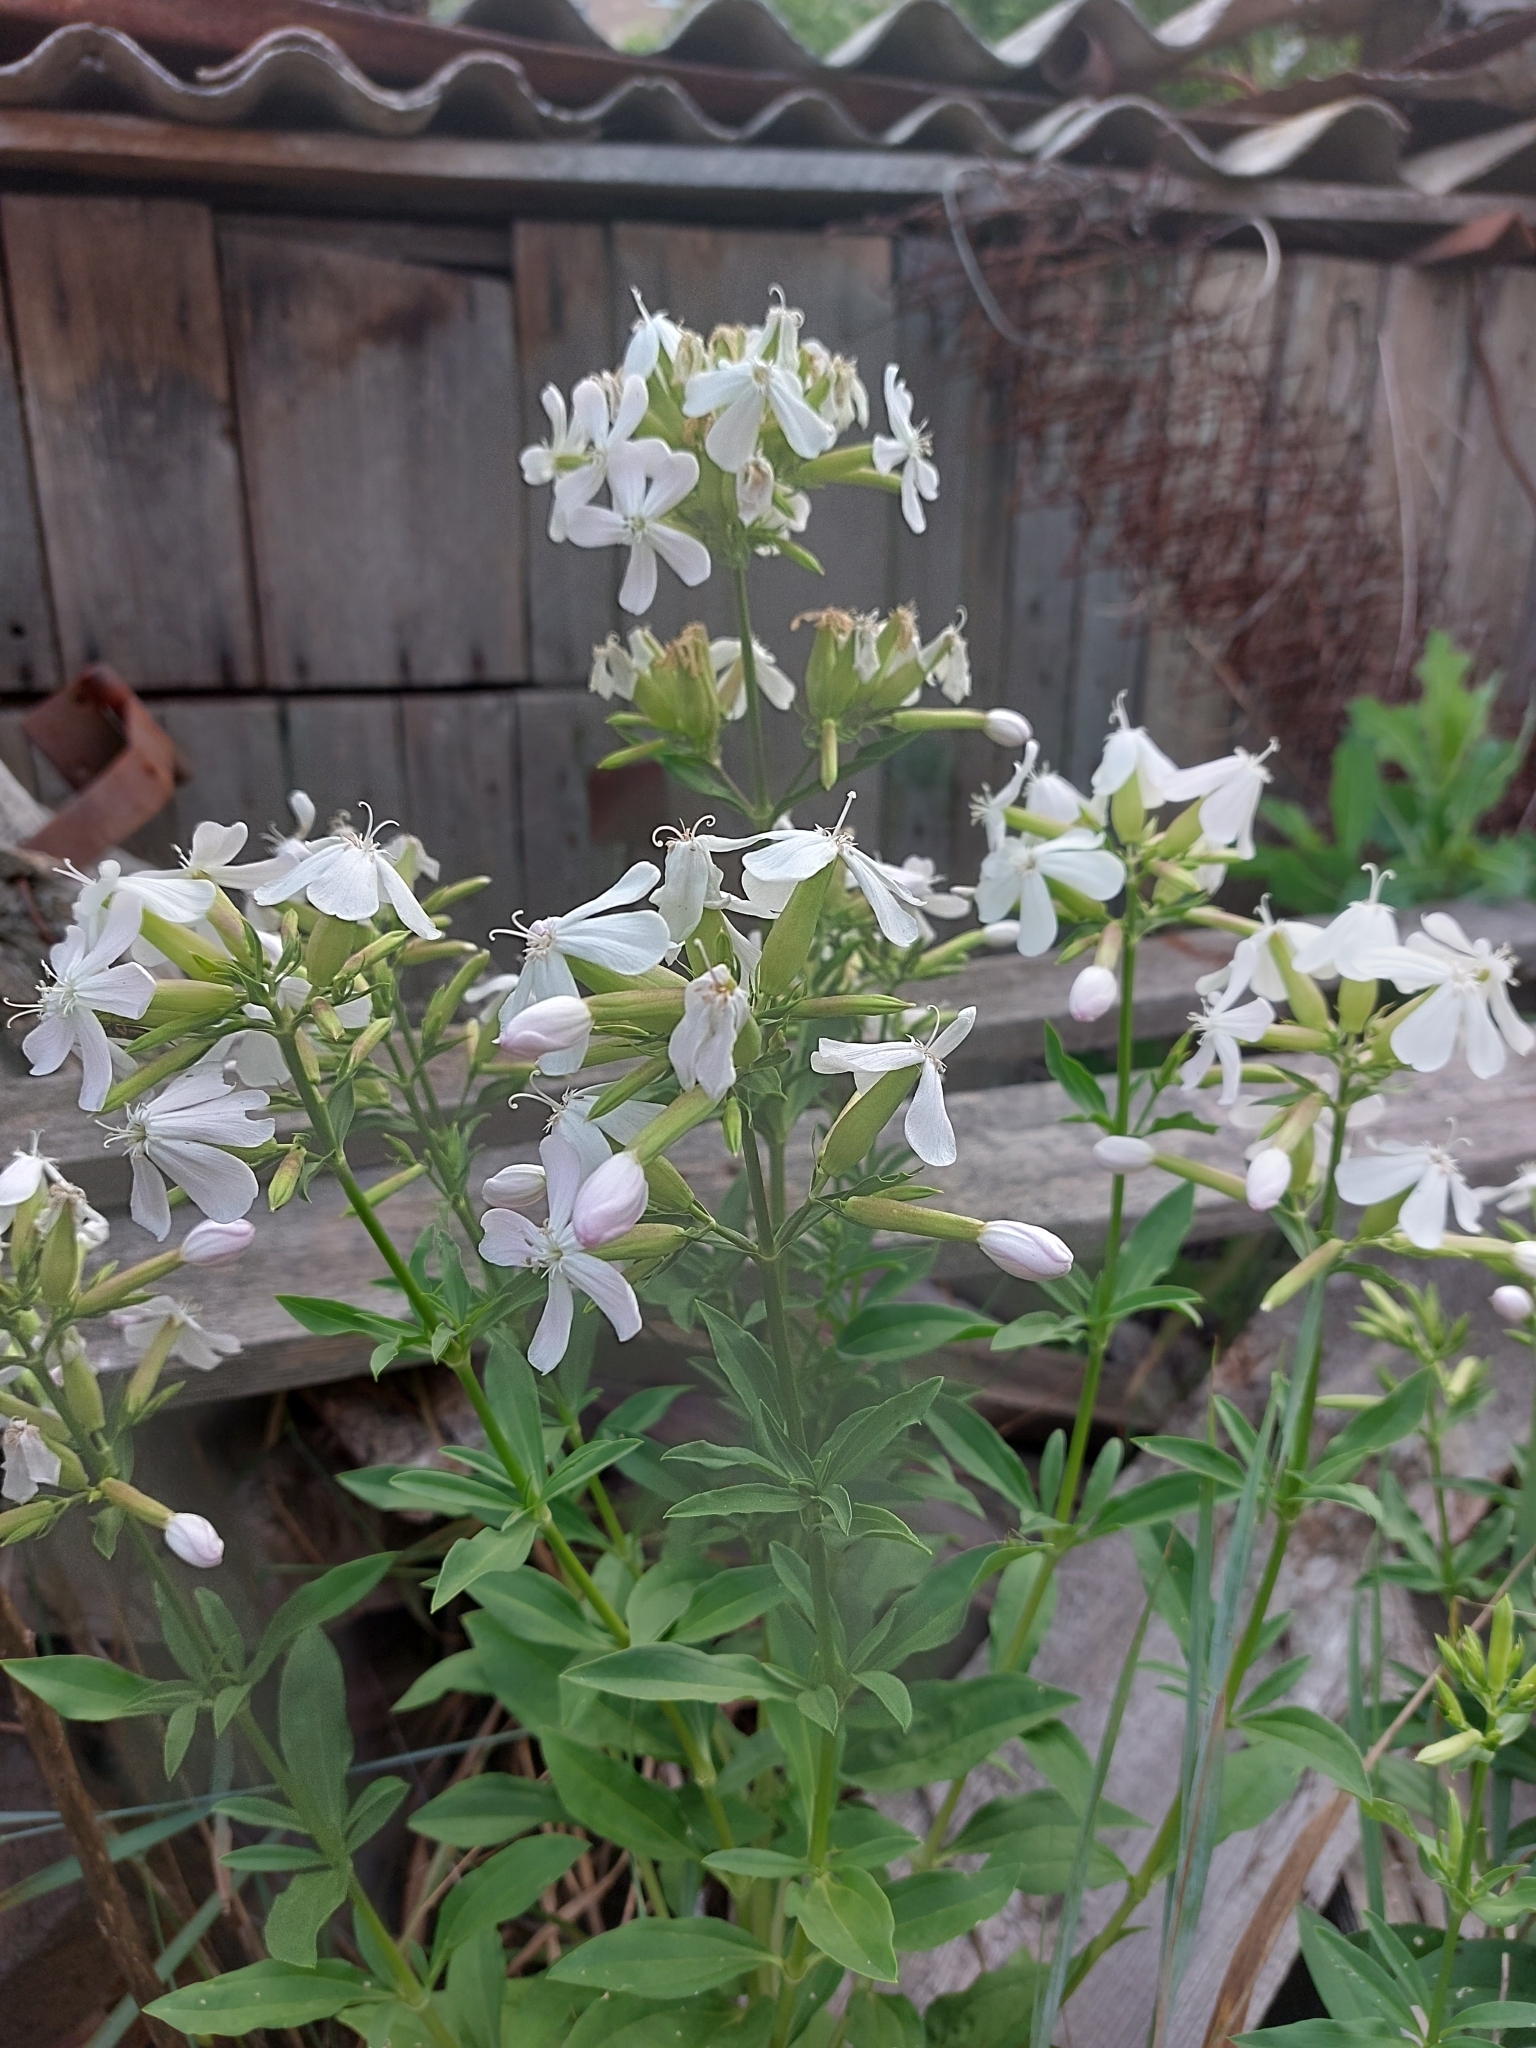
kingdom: Plantae
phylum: Tracheophyta
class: Magnoliopsida
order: Caryophyllales
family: Caryophyllaceae
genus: Saponaria
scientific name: Saponaria officinalis
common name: Soapwort
